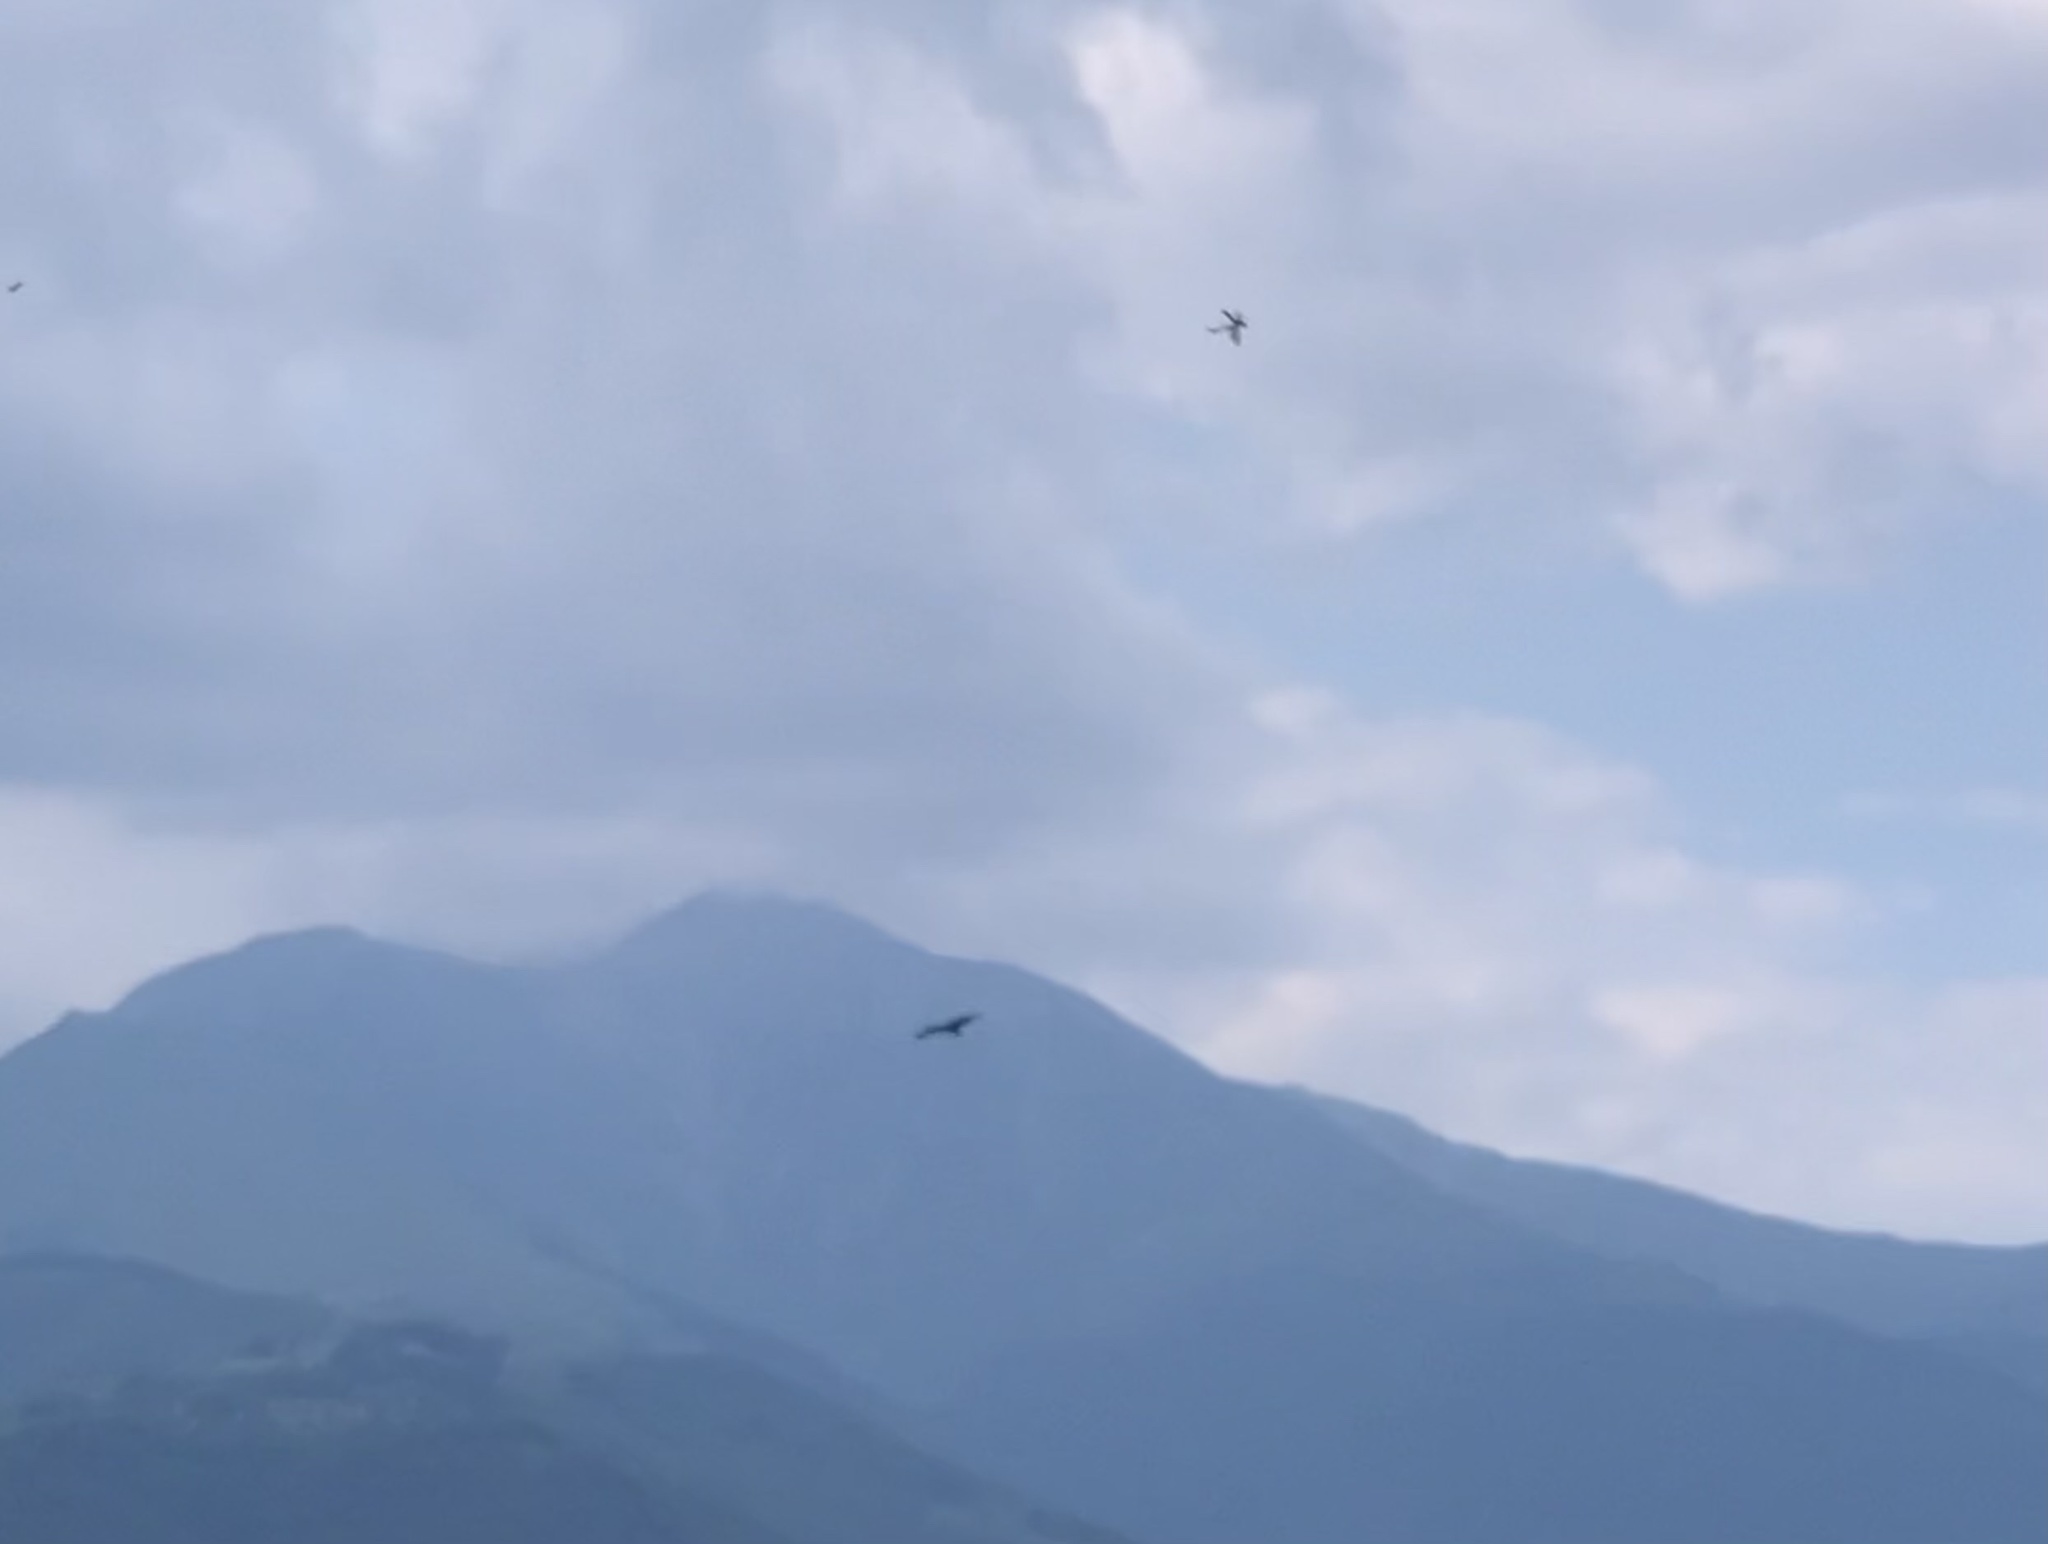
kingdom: Animalia
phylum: Chordata
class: Aves
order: Accipitriformes
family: Accipitridae
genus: Milvus
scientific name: Milvus migrans
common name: Black kite
